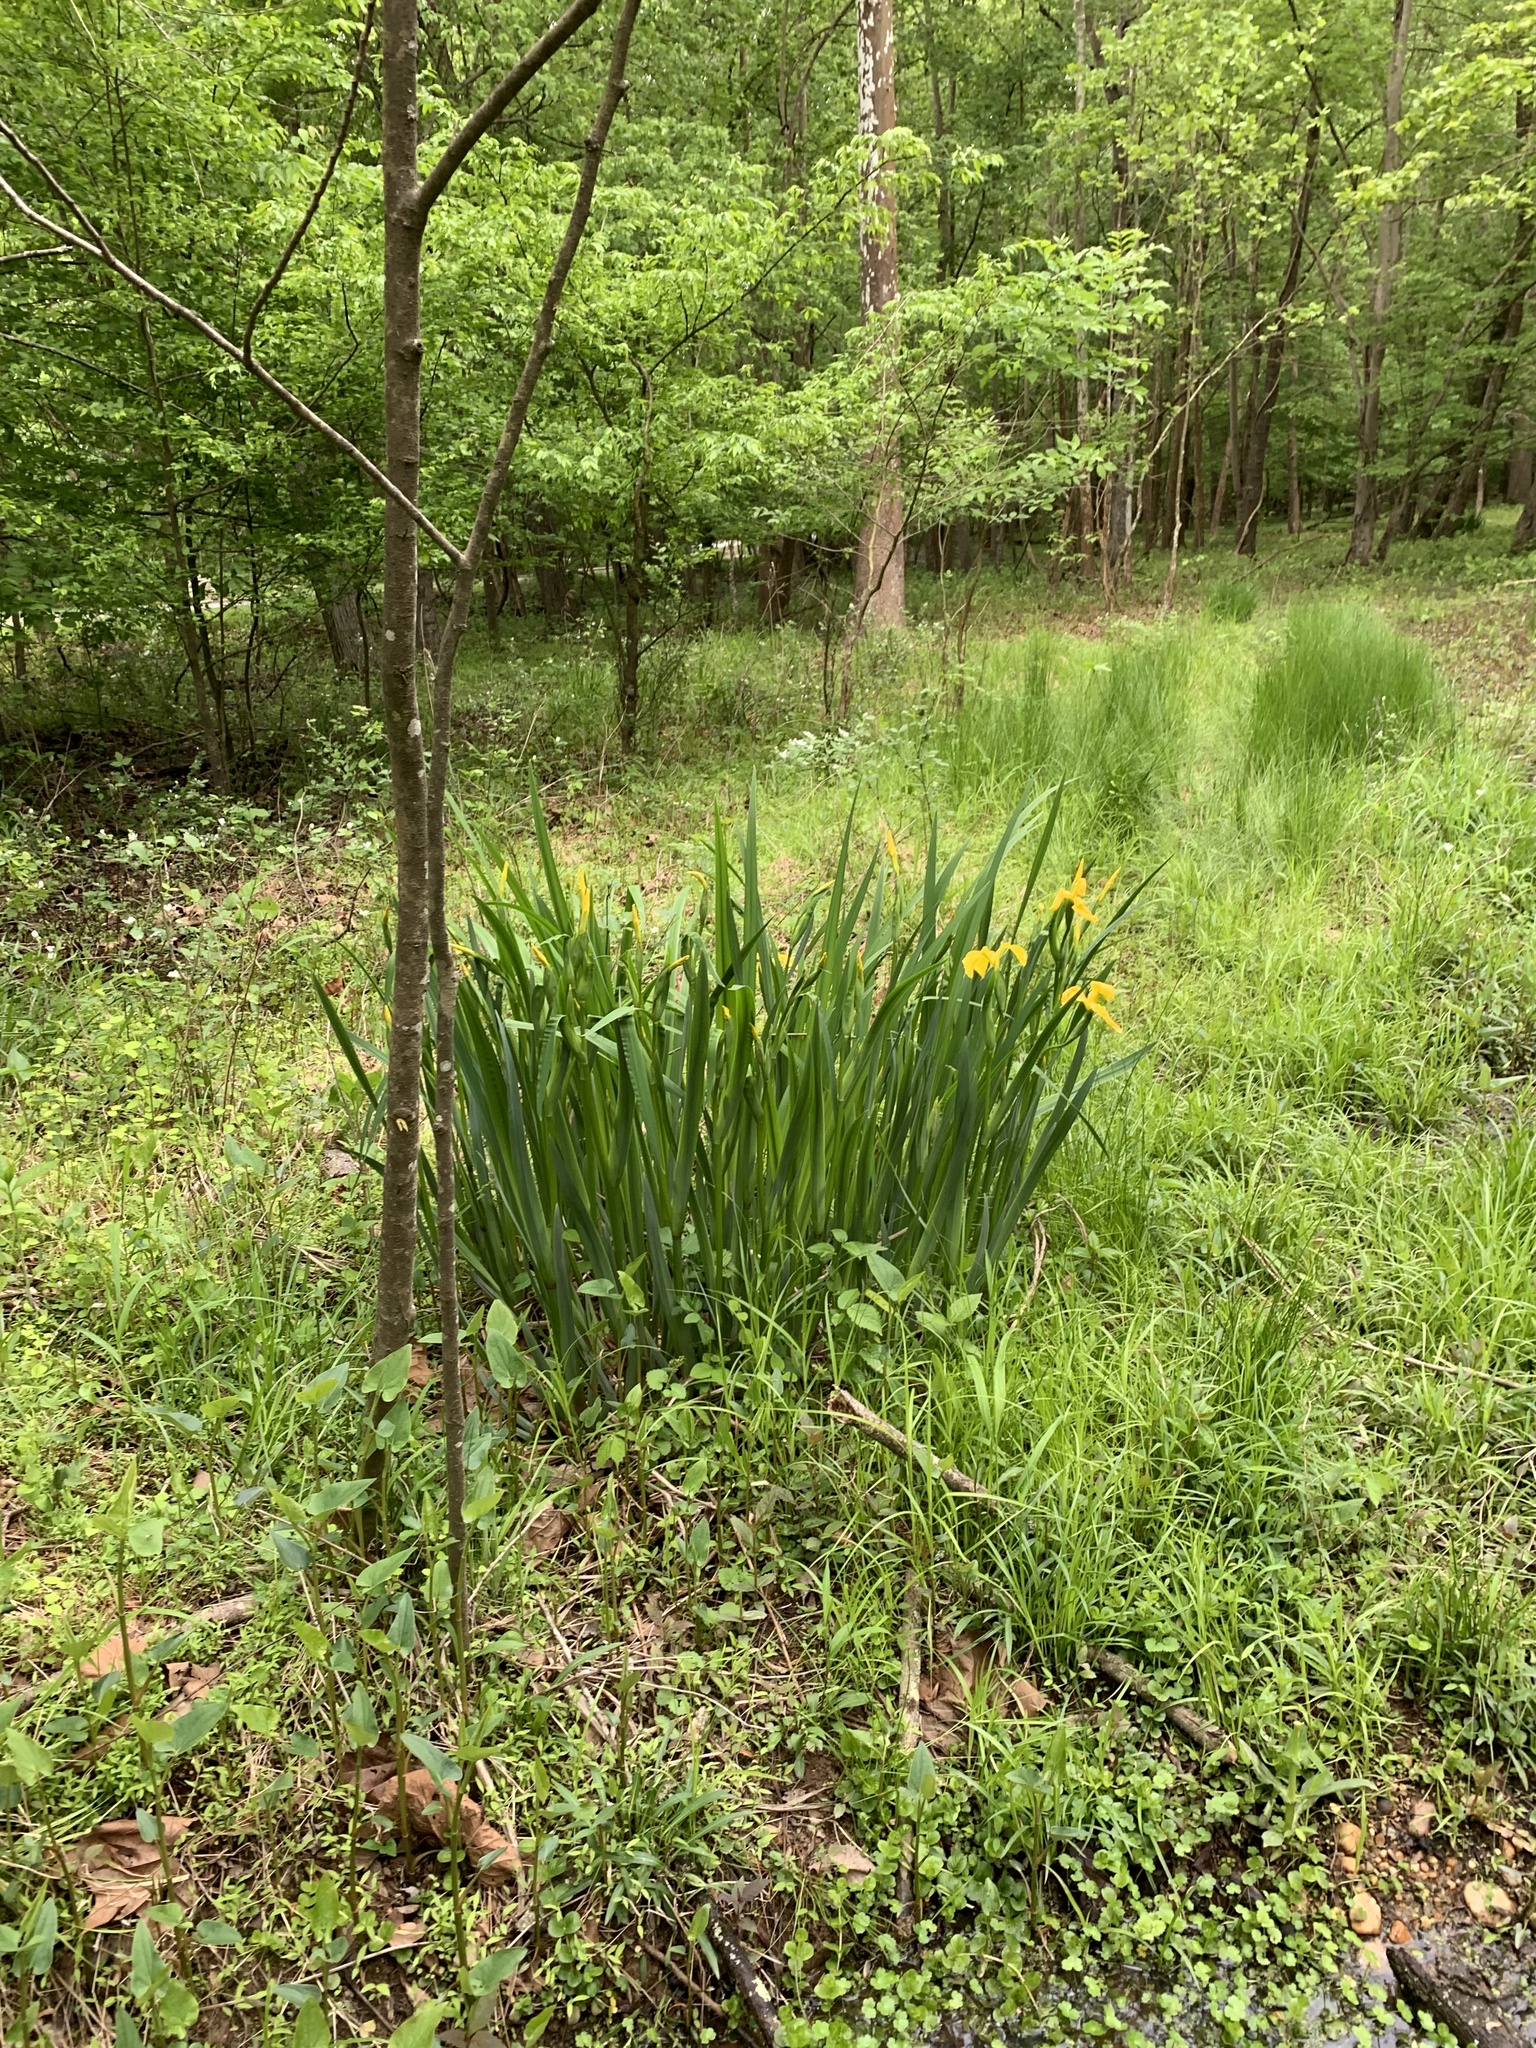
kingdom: Plantae
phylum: Tracheophyta
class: Liliopsida
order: Asparagales
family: Iridaceae
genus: Iris
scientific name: Iris pseudacorus
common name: Yellow flag
